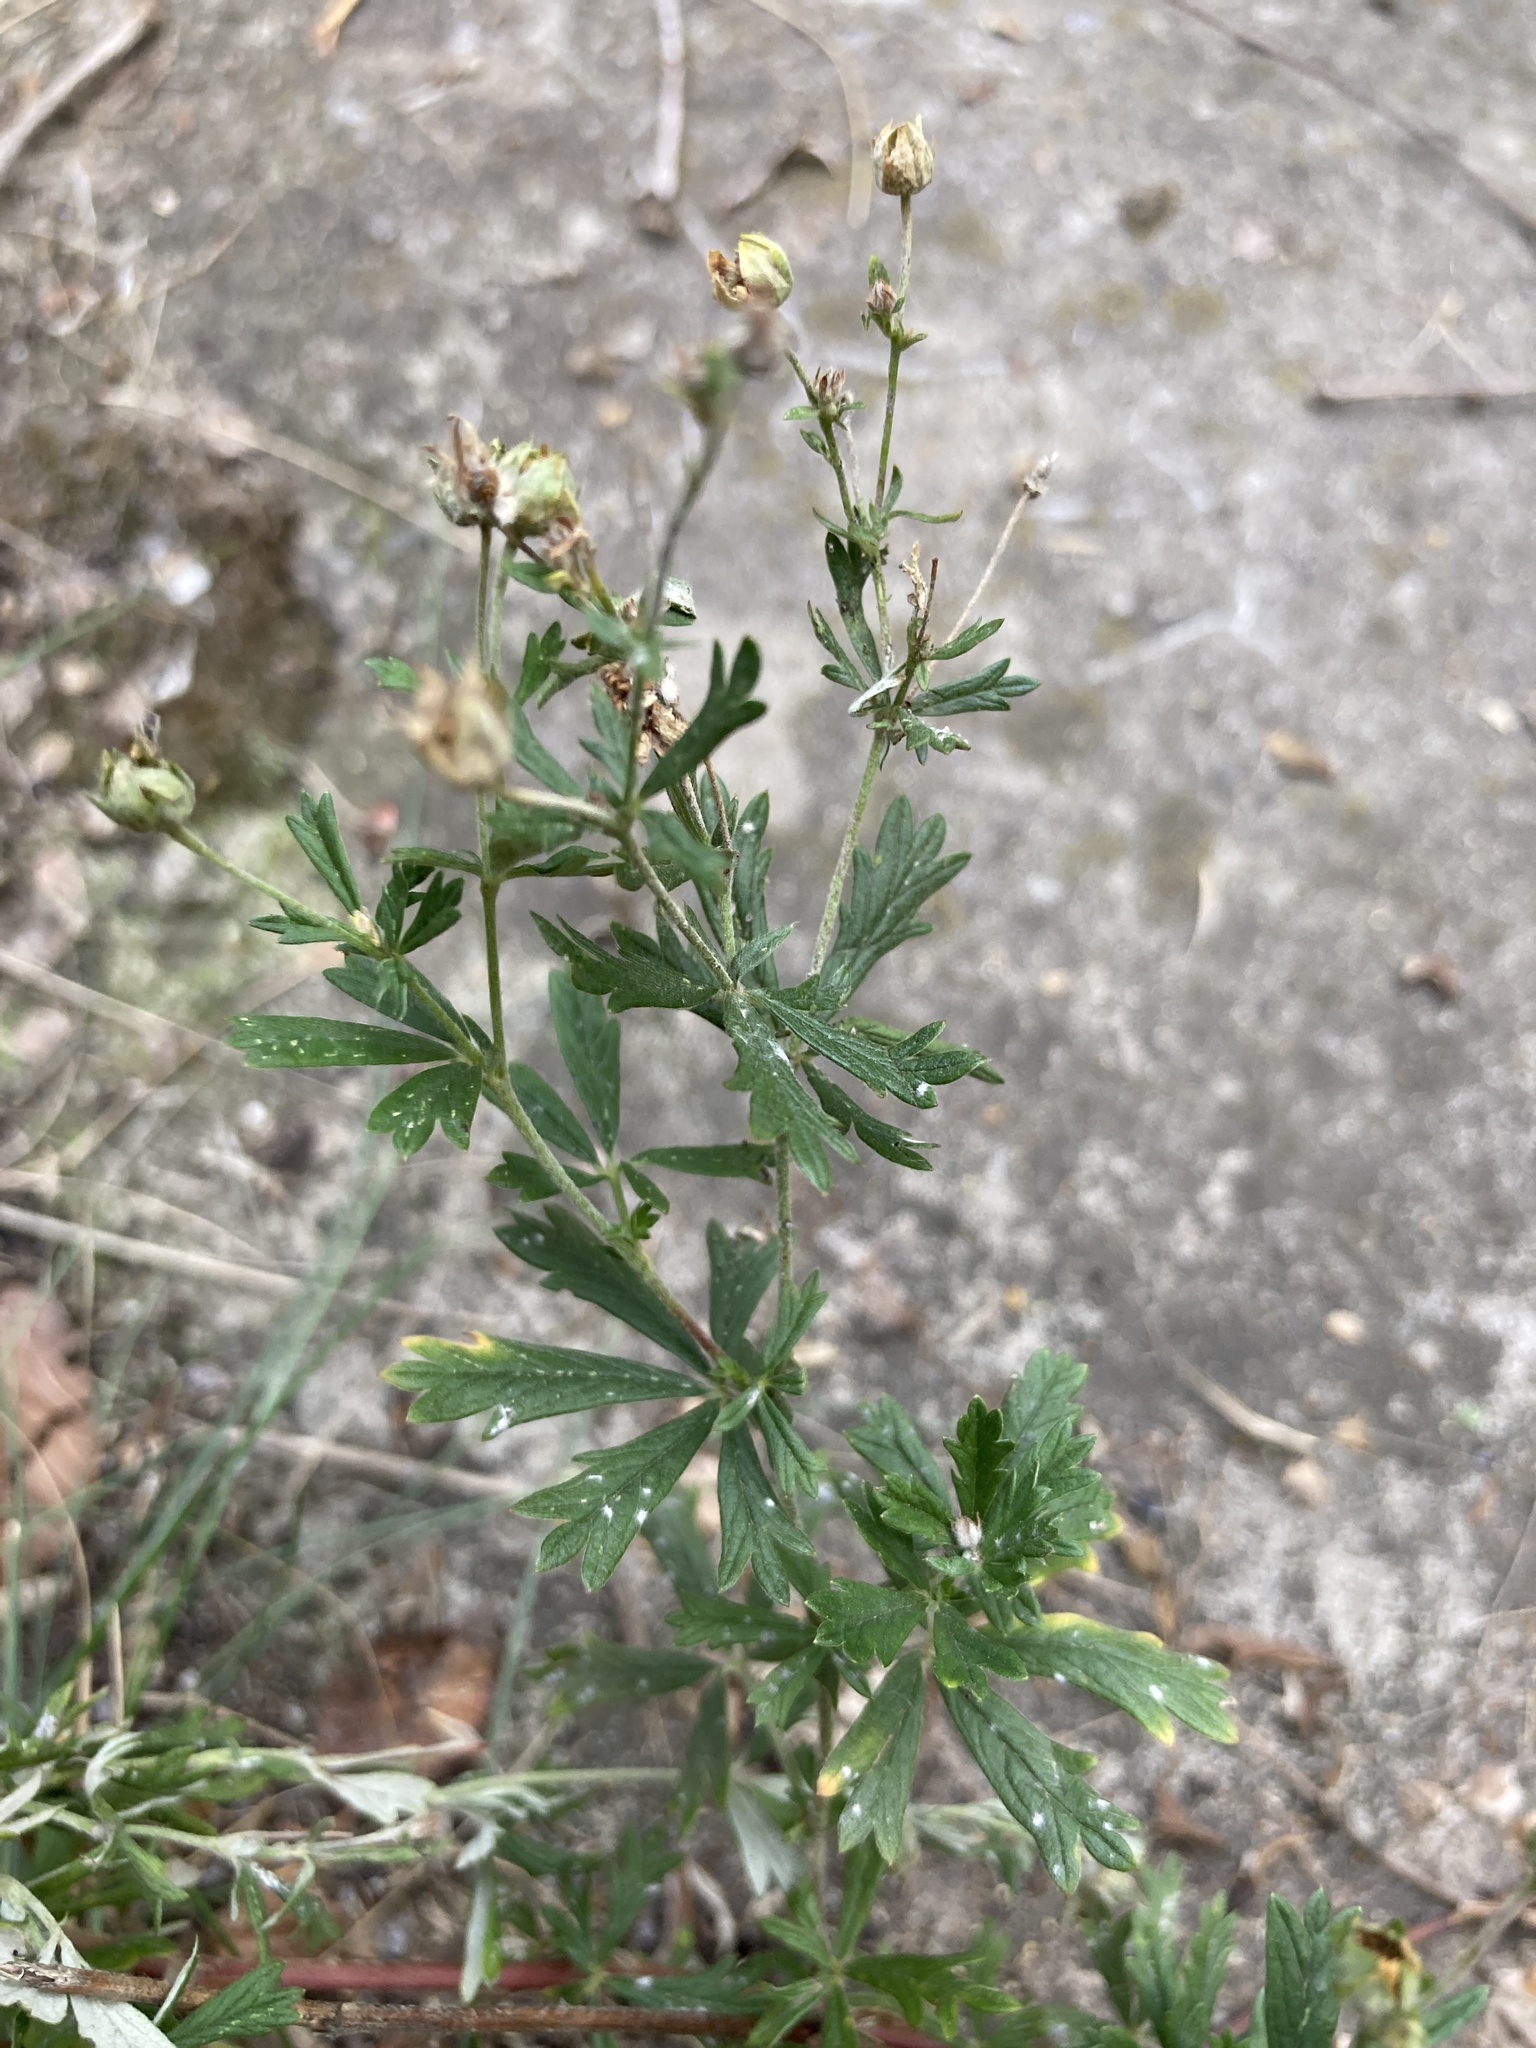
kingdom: Plantae
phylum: Tracheophyta
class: Magnoliopsida
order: Rosales
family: Rosaceae
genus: Potentilla
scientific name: Potentilla argentea
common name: Hoary cinquefoil
